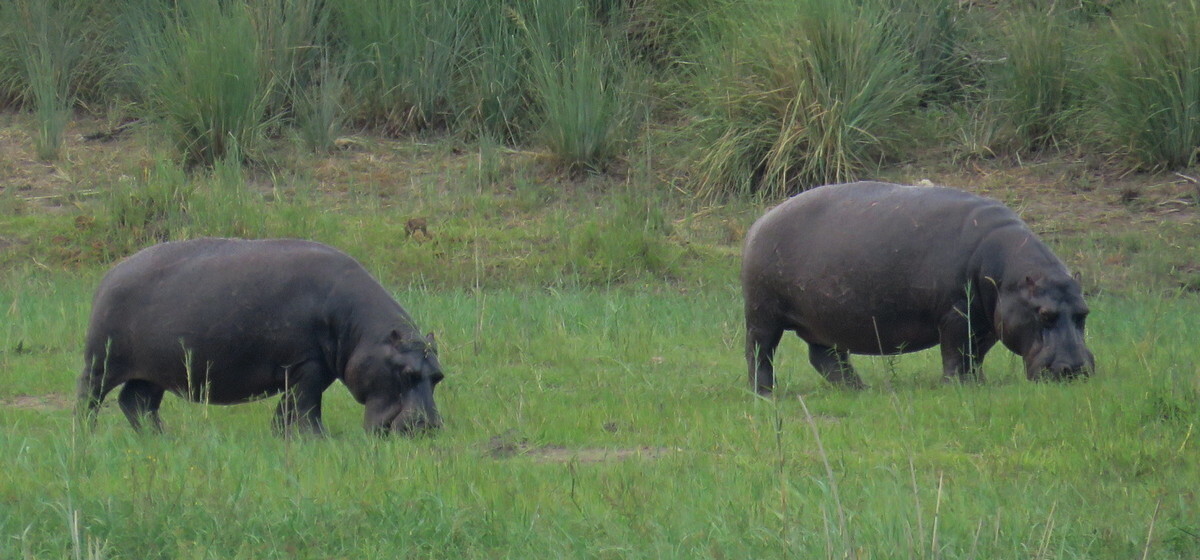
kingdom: Animalia
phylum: Chordata
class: Mammalia
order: Artiodactyla
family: Hippopotamidae
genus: Hippopotamus
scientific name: Hippopotamus amphibius
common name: Common hippopotamus
